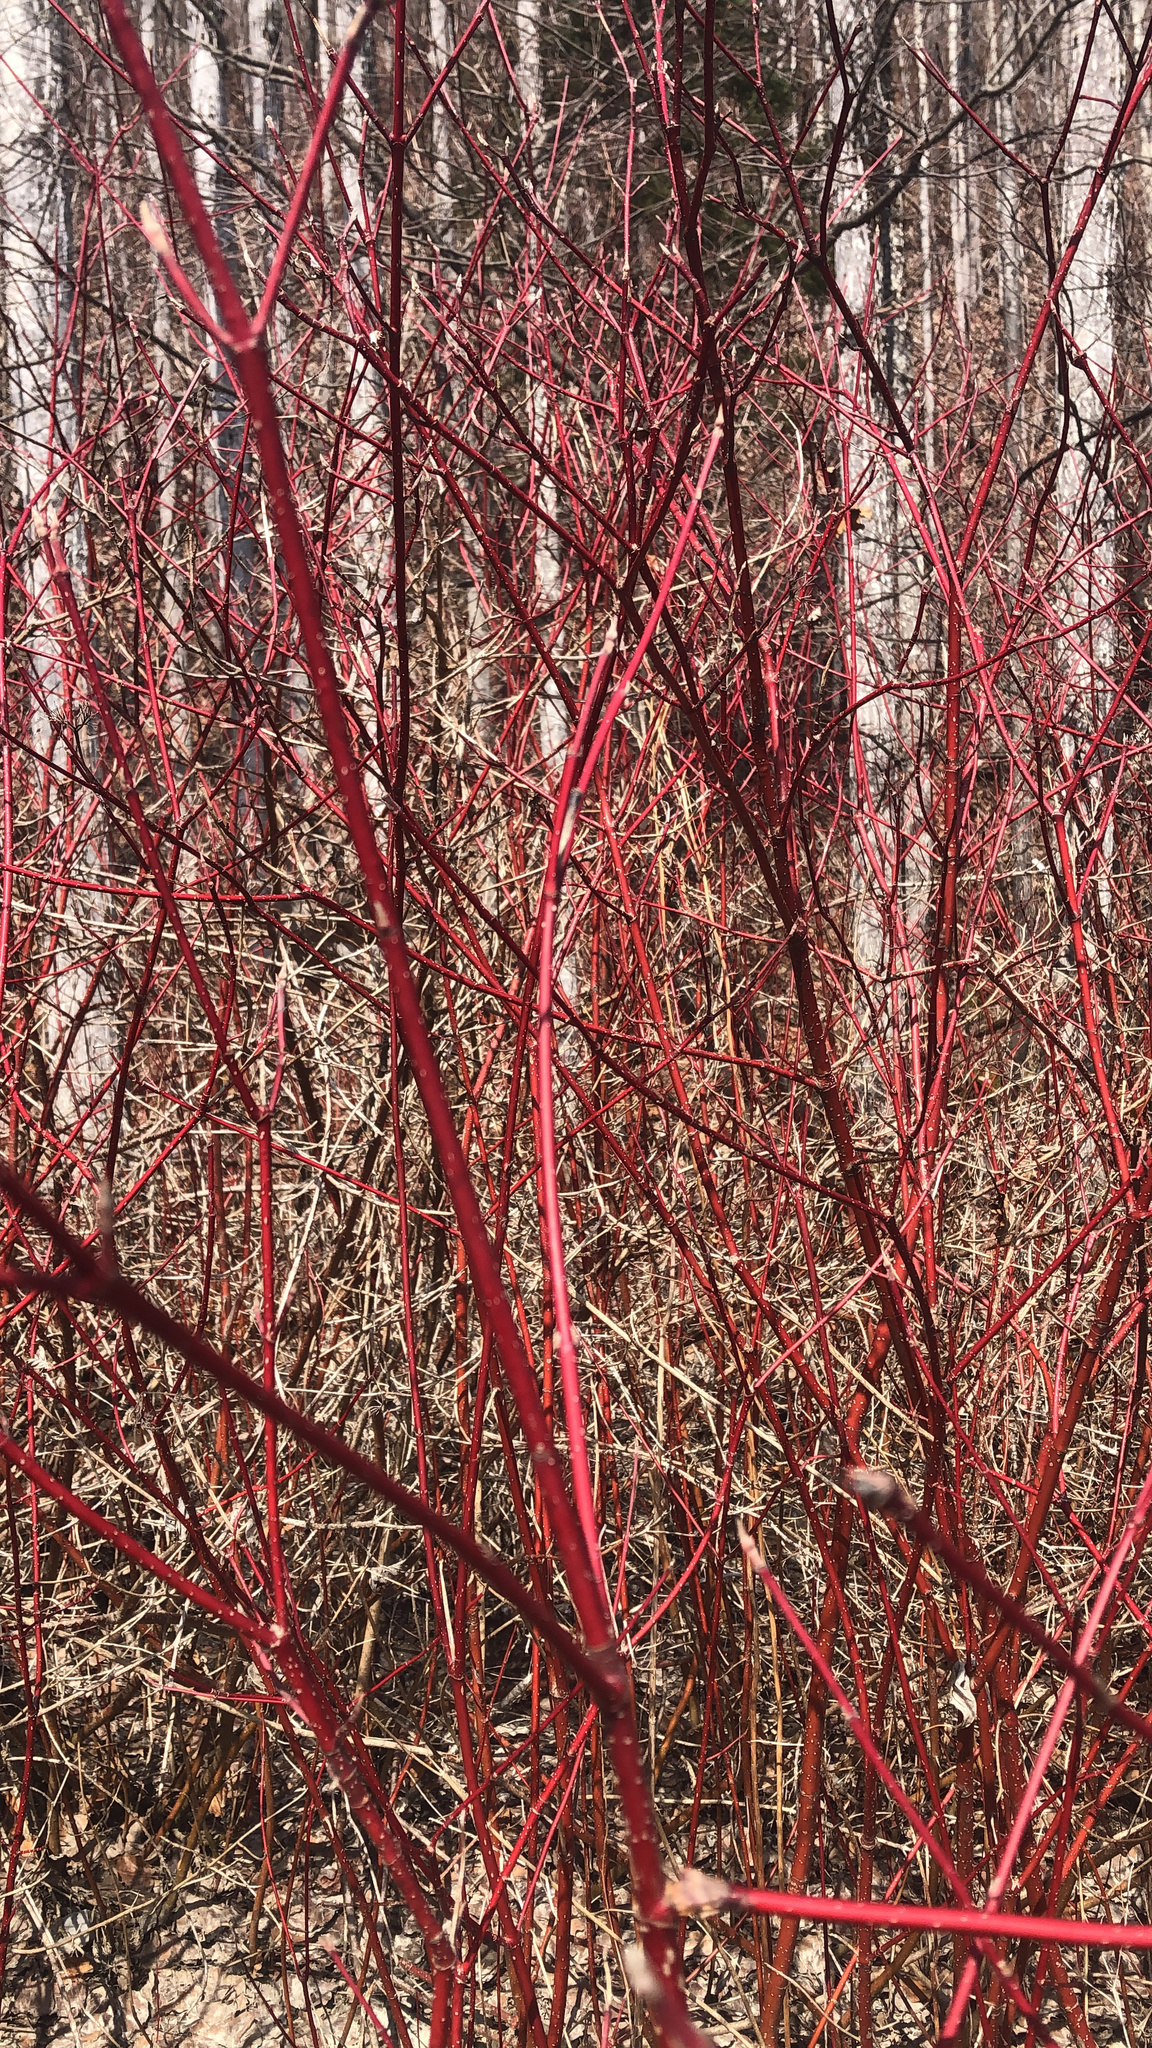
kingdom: Plantae
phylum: Tracheophyta
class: Magnoliopsida
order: Cornales
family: Cornaceae
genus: Cornus
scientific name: Cornus sericea
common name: Red-osier dogwood
